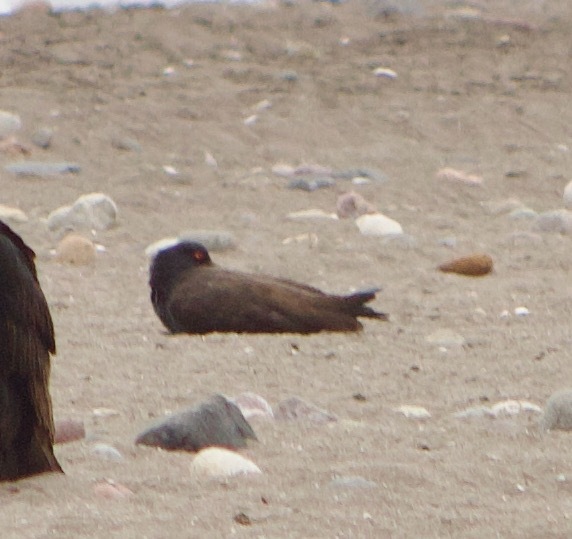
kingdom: Animalia
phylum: Chordata
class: Aves
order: Charadriiformes
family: Haematopodidae
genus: Haematopus
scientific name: Haematopus ater
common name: Blackish oystercatcher
